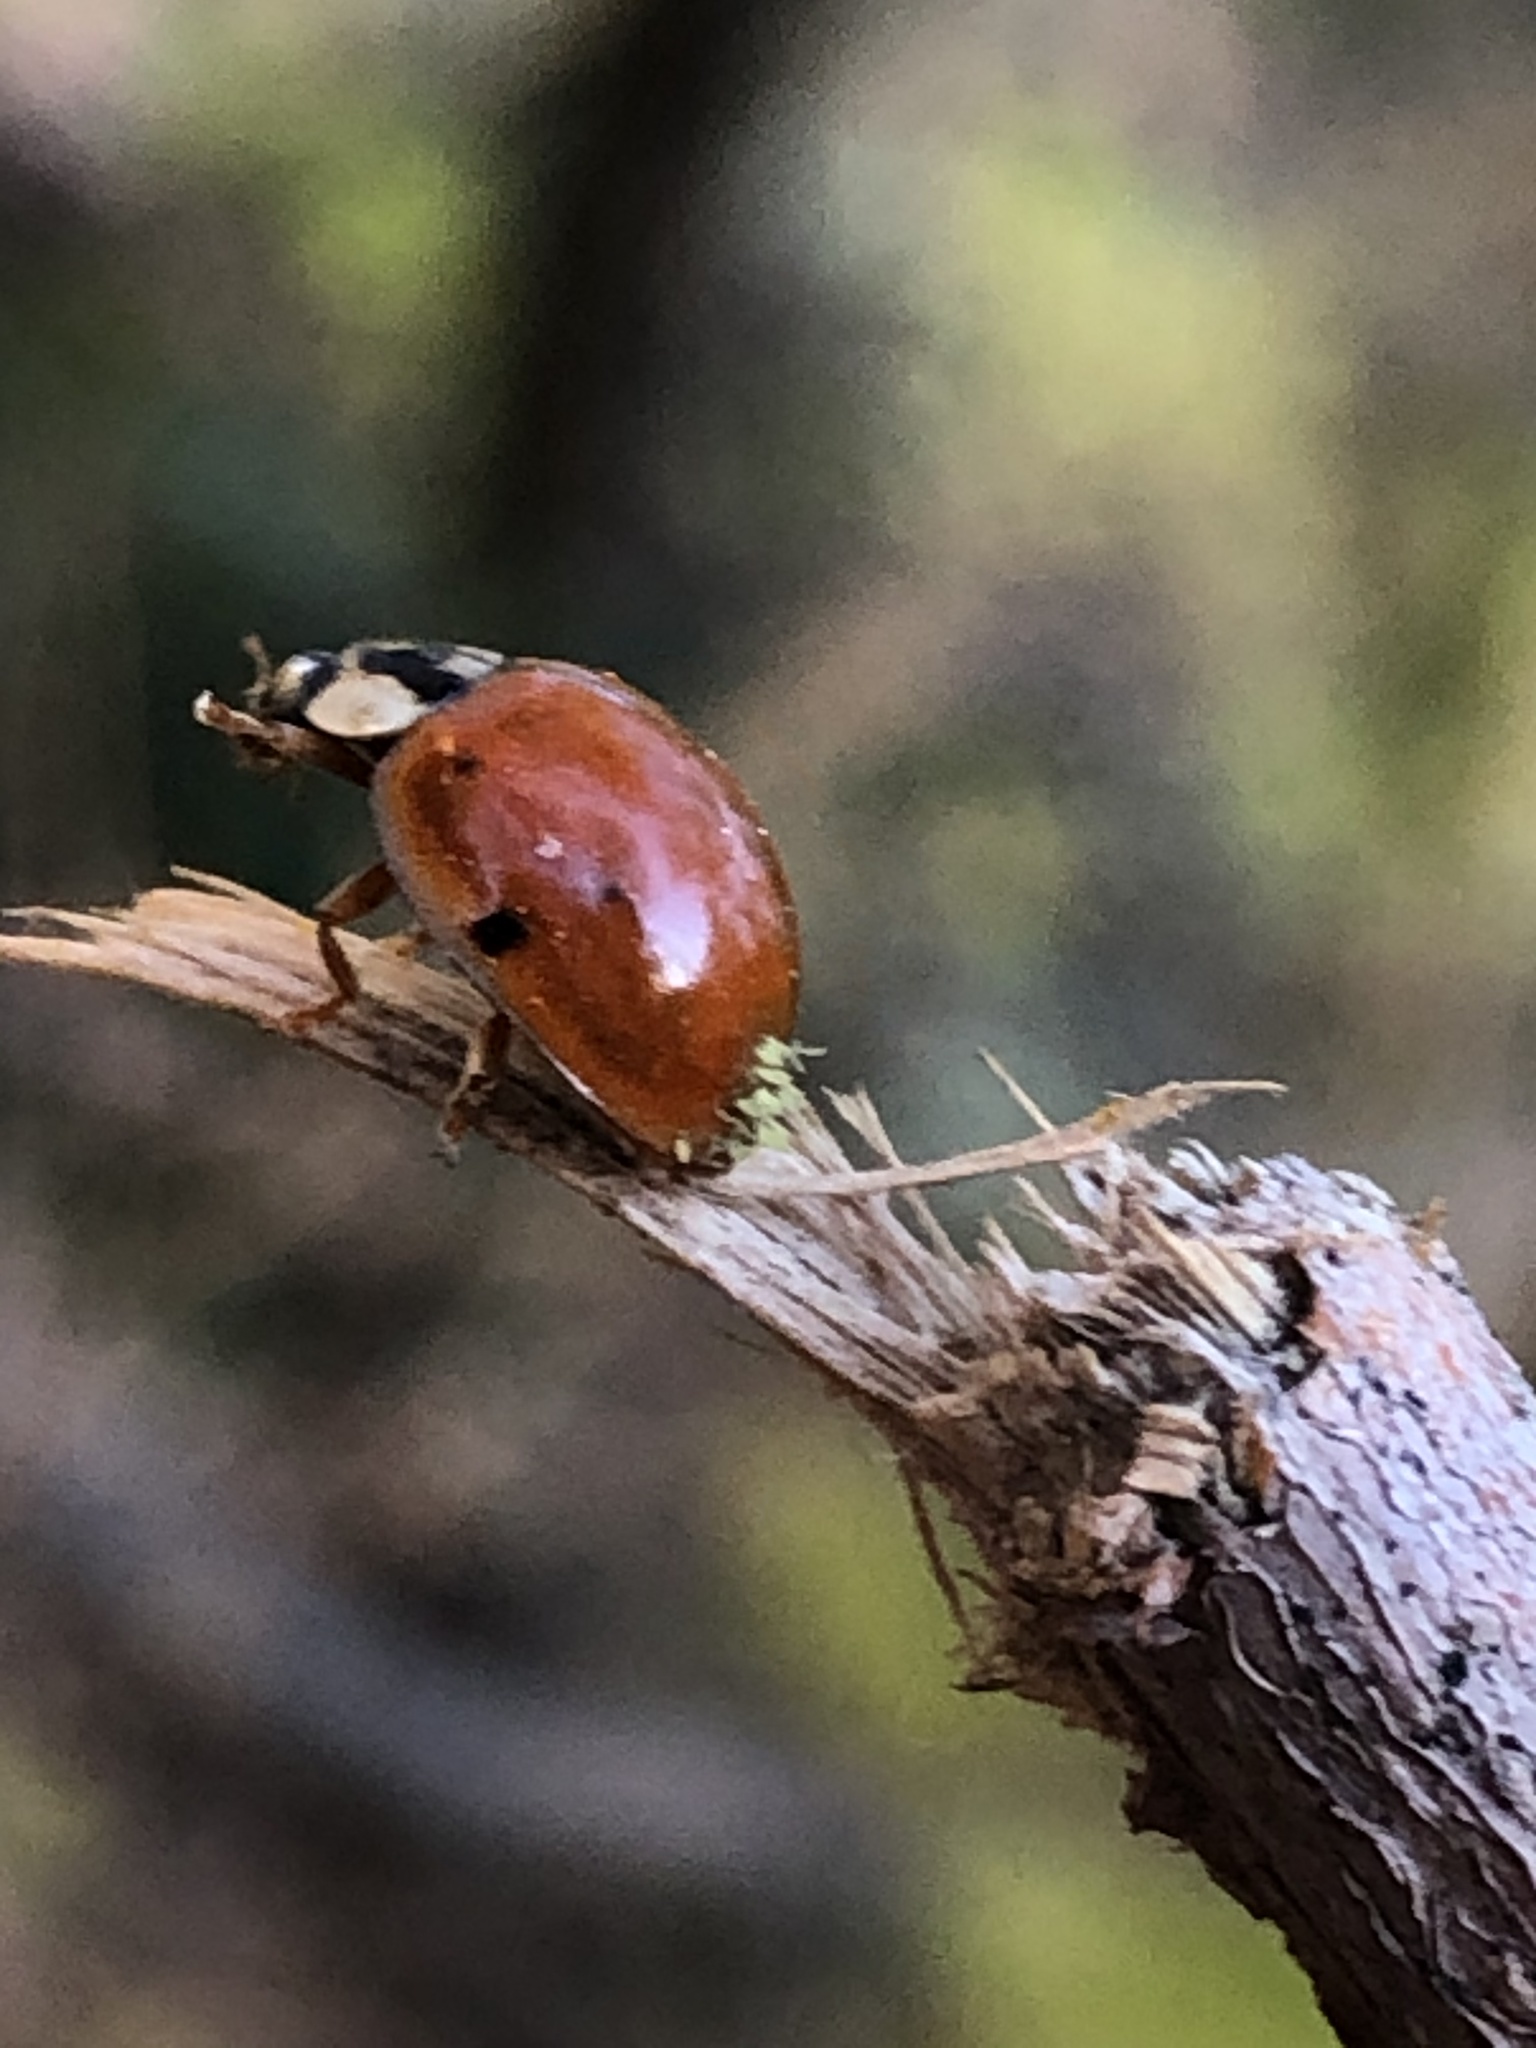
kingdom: Fungi
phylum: Ascomycota
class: Laboulbeniomycetes
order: Laboulbeniales
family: Laboulbeniaceae
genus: Hesperomyces
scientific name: Hesperomyces harmoniae
